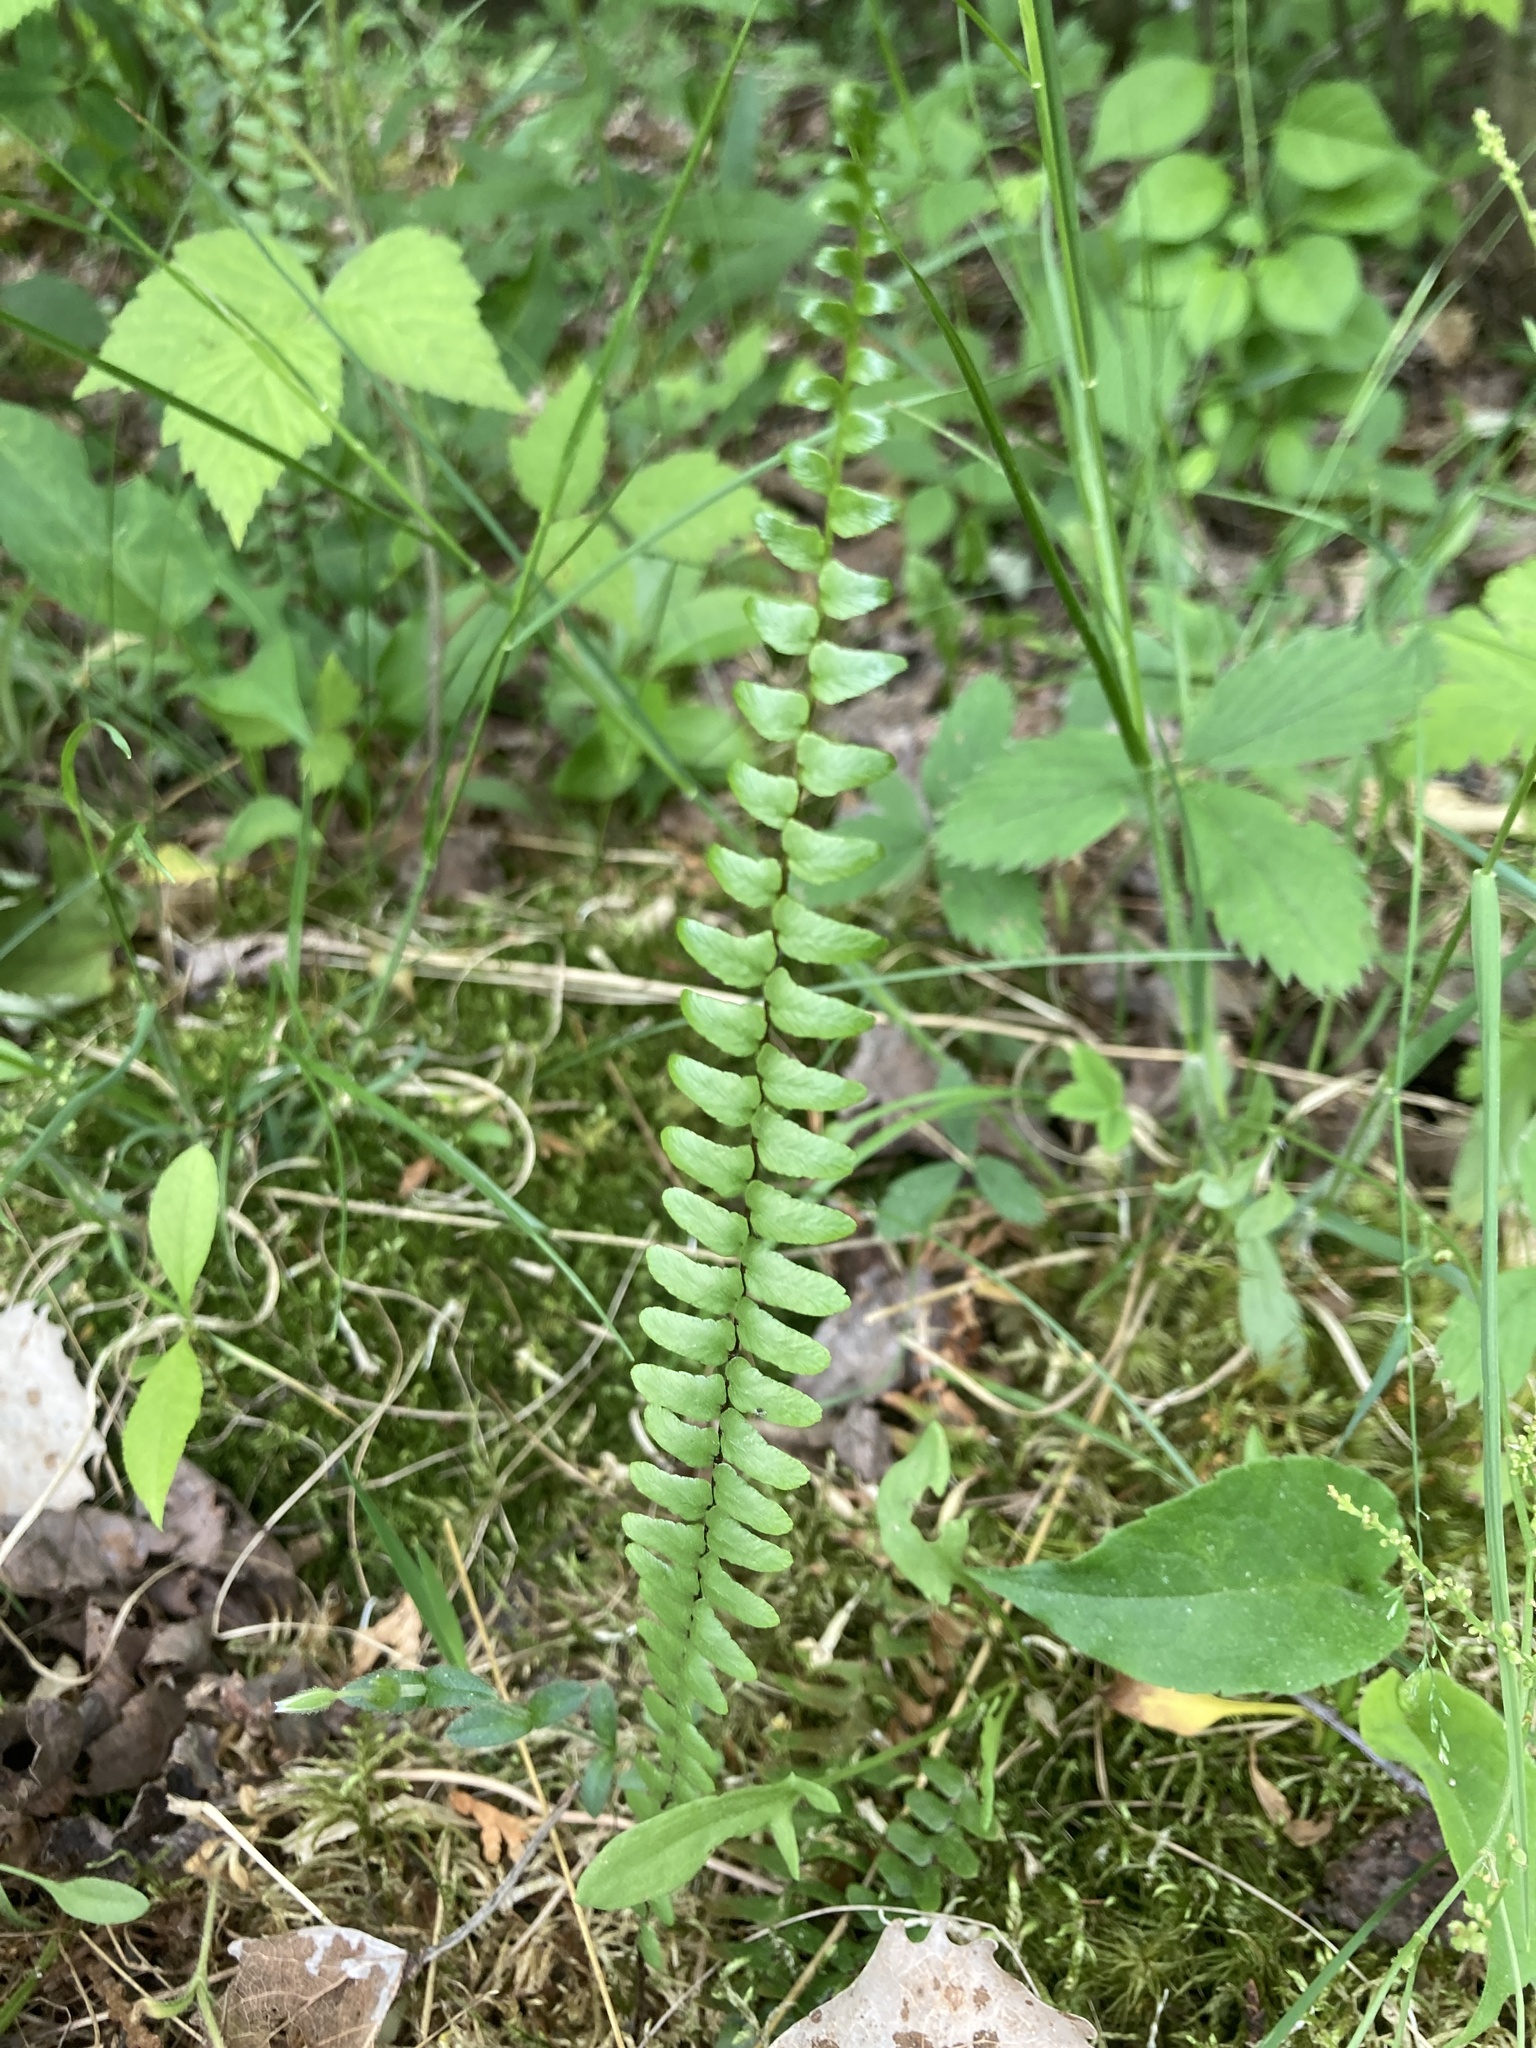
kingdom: Plantae
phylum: Tracheophyta
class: Polypodiopsida
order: Polypodiales
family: Aspleniaceae
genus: Asplenium
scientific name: Asplenium platyneuron
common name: Ebony spleenwort
